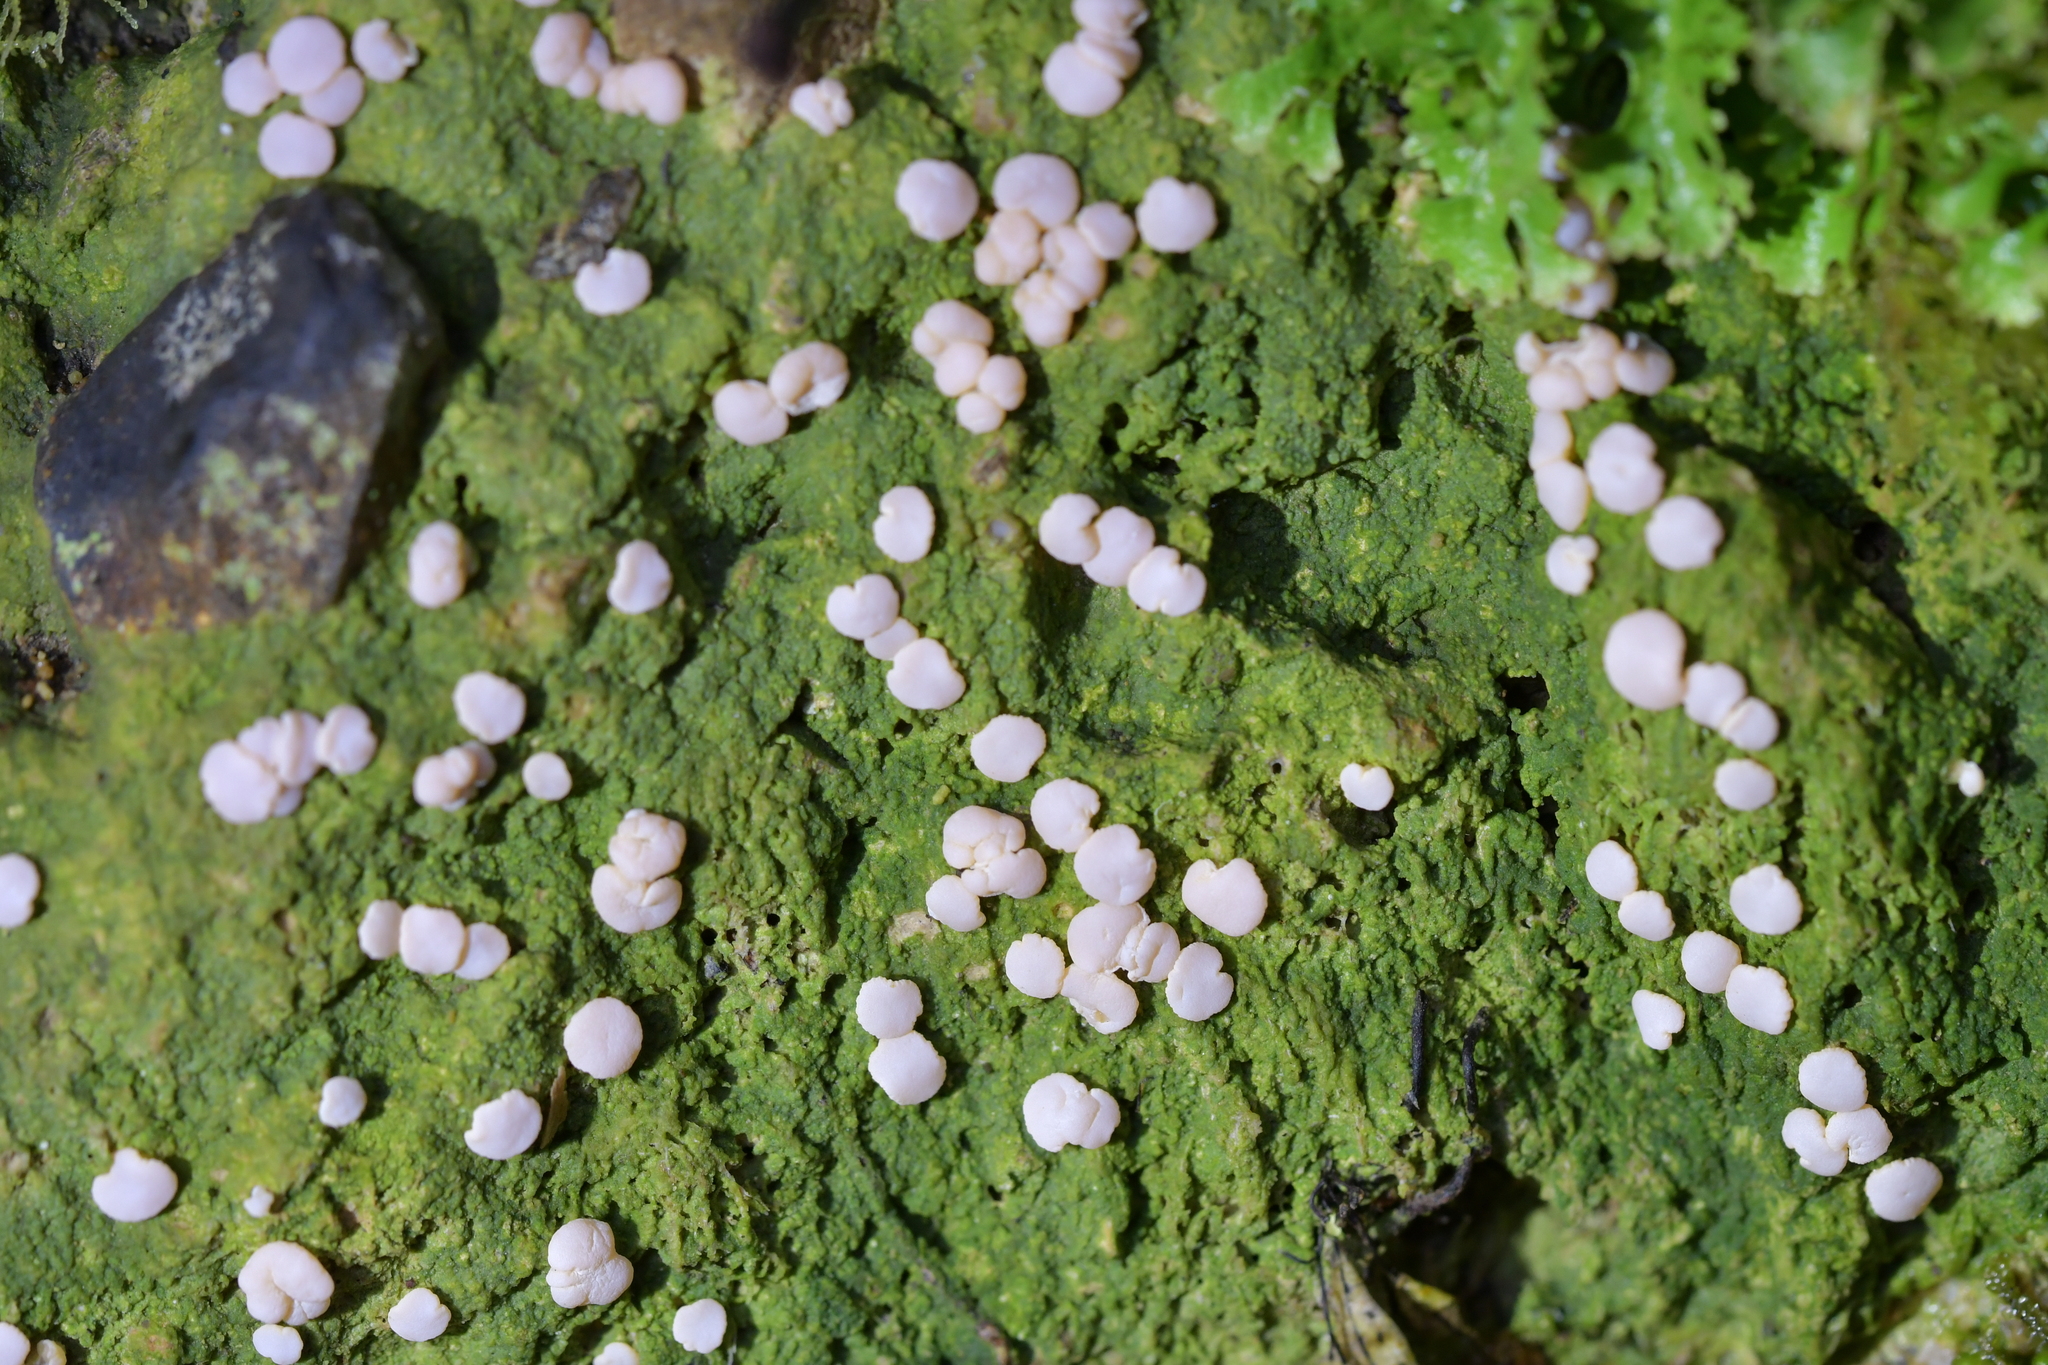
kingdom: Fungi
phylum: Ascomycota
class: Lecanoromycetes
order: Pertusariales
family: Icmadophilaceae
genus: Dibaeis
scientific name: Dibaeis absoluta
